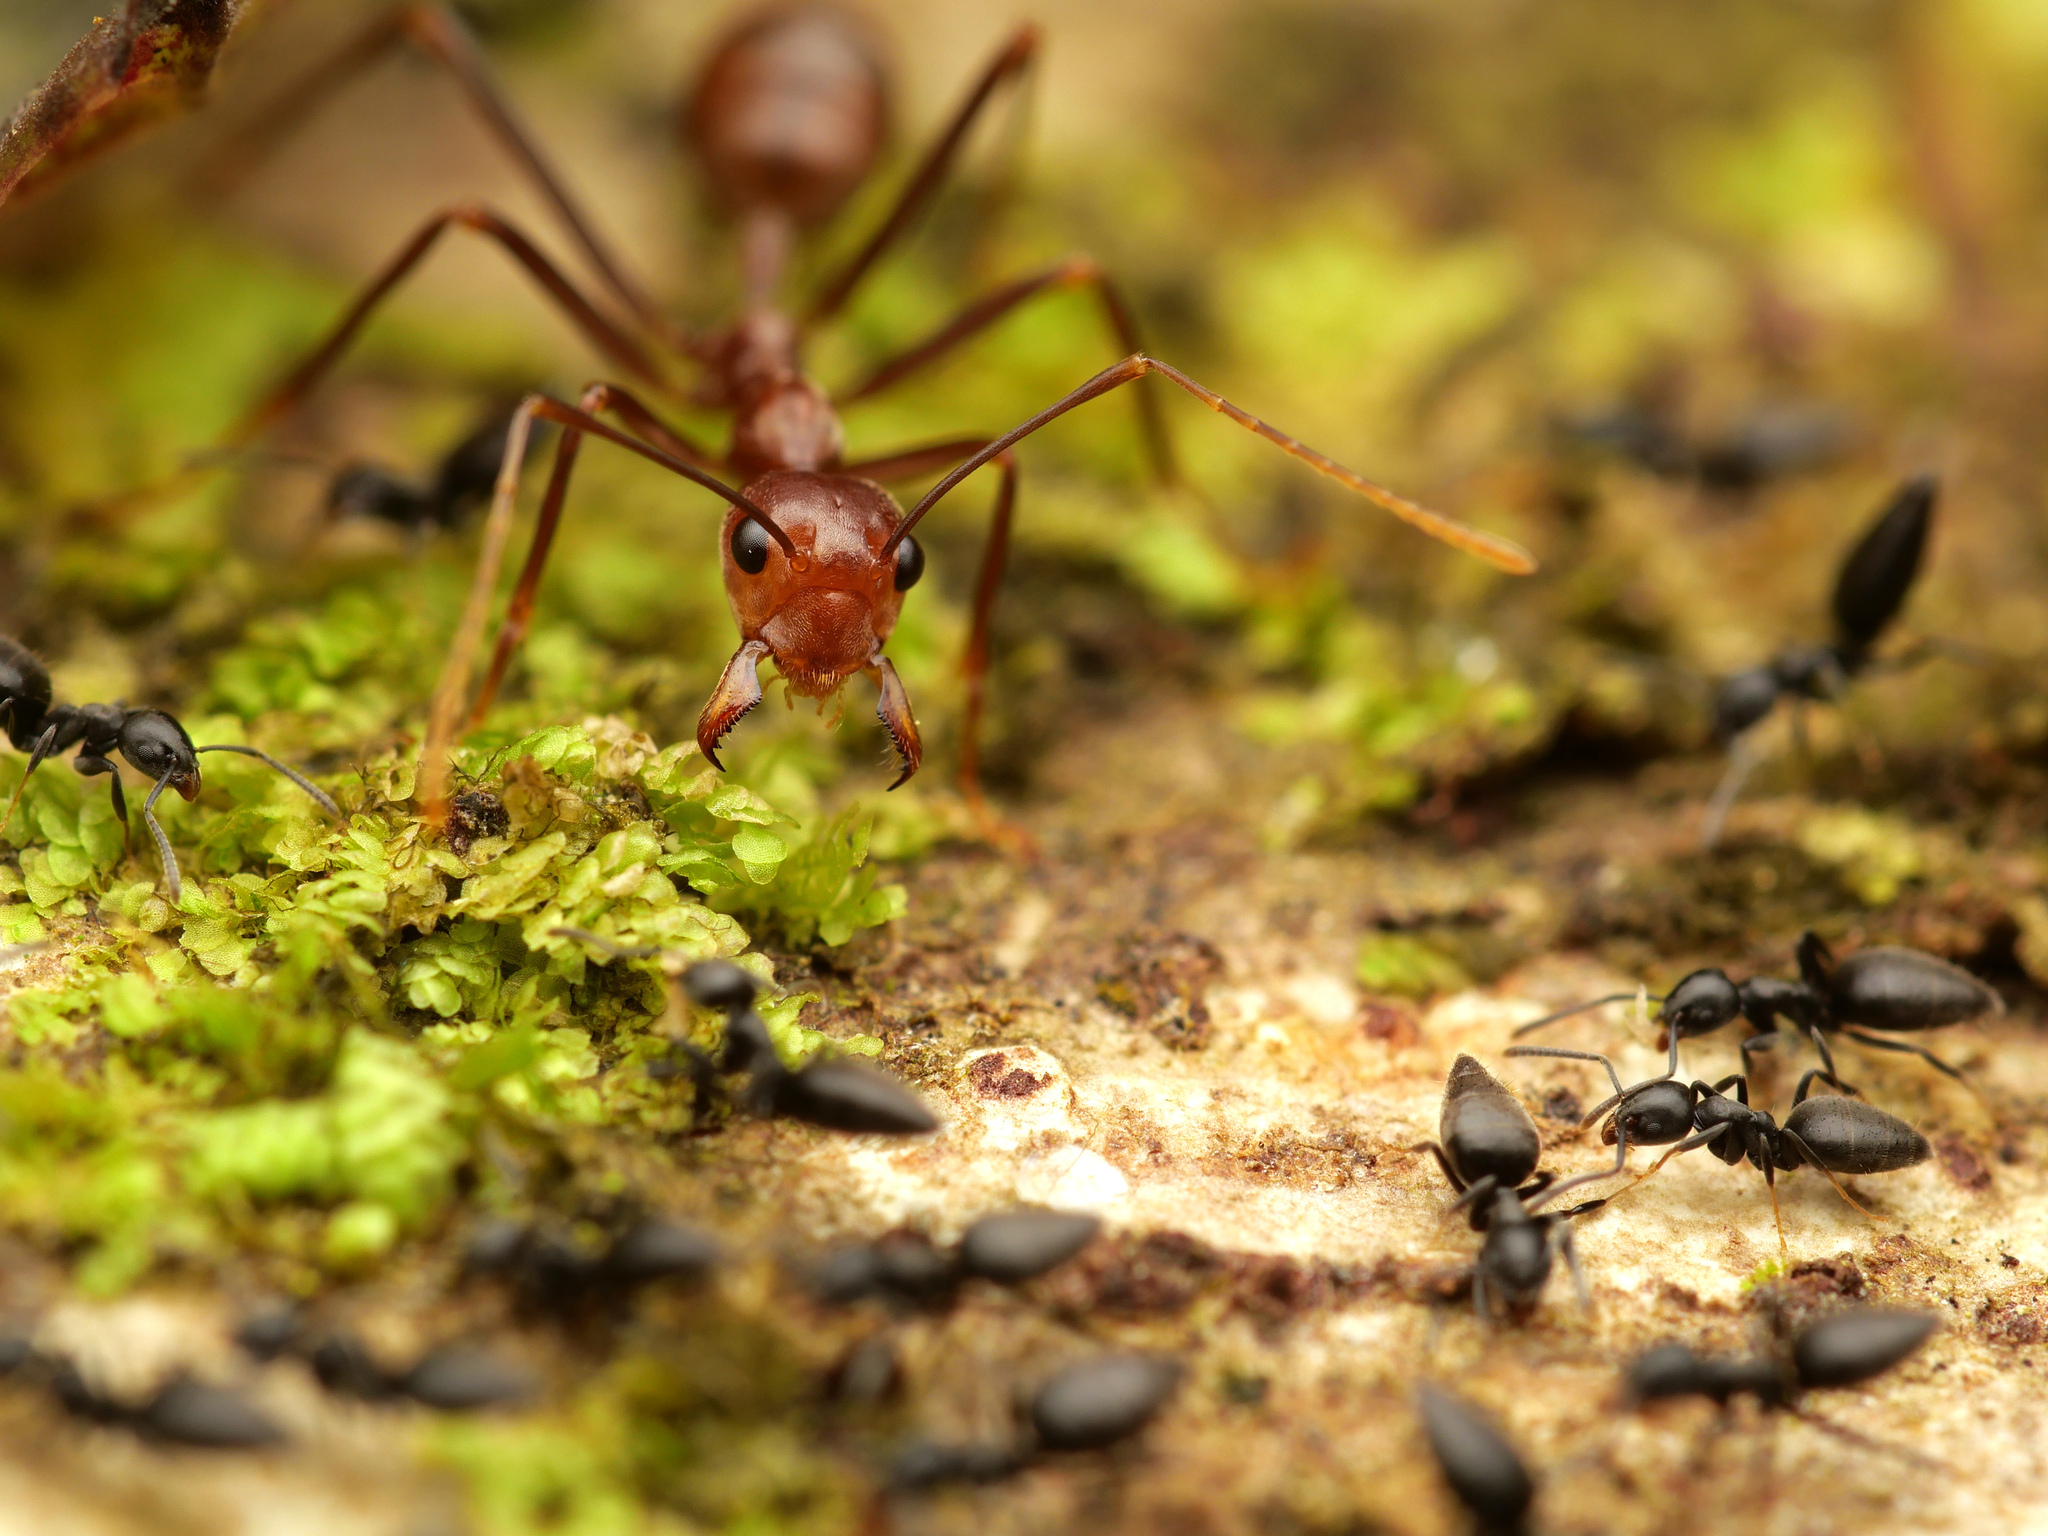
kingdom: Animalia
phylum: Arthropoda
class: Insecta
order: Hymenoptera
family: Formicidae
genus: Oecophylla
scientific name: Oecophylla smaragdina
